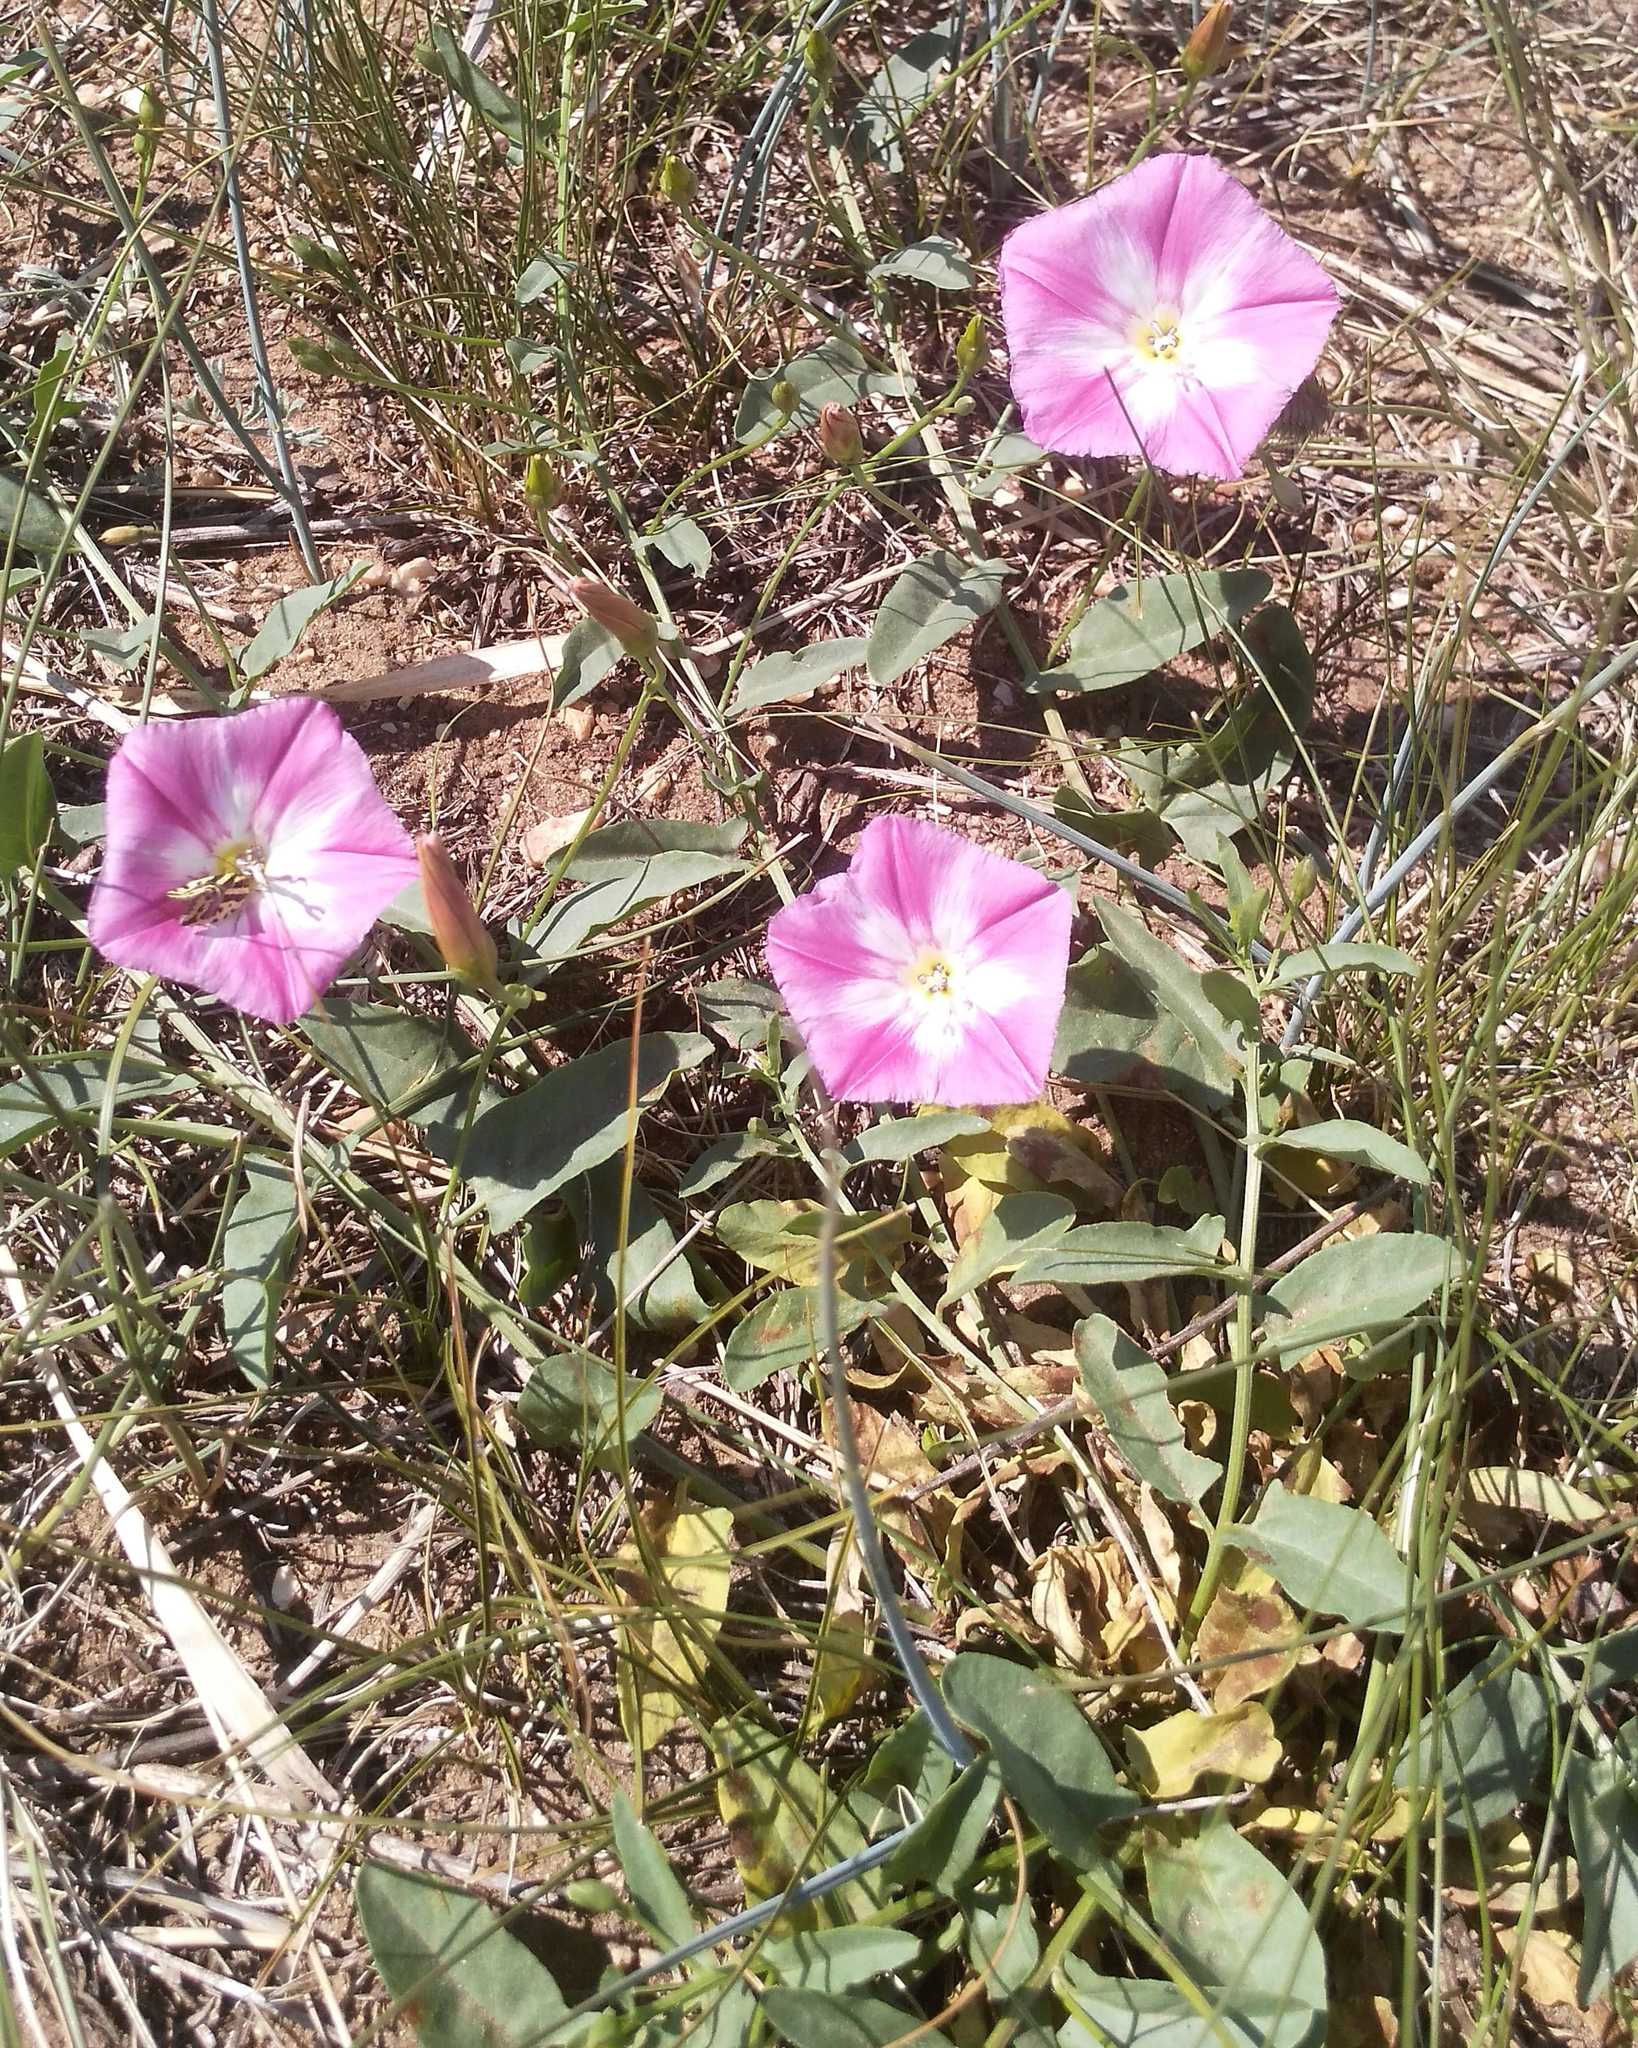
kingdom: Plantae
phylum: Tracheophyta
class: Magnoliopsida
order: Solanales
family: Convolvulaceae
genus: Convolvulus
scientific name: Convolvulus chinensis
